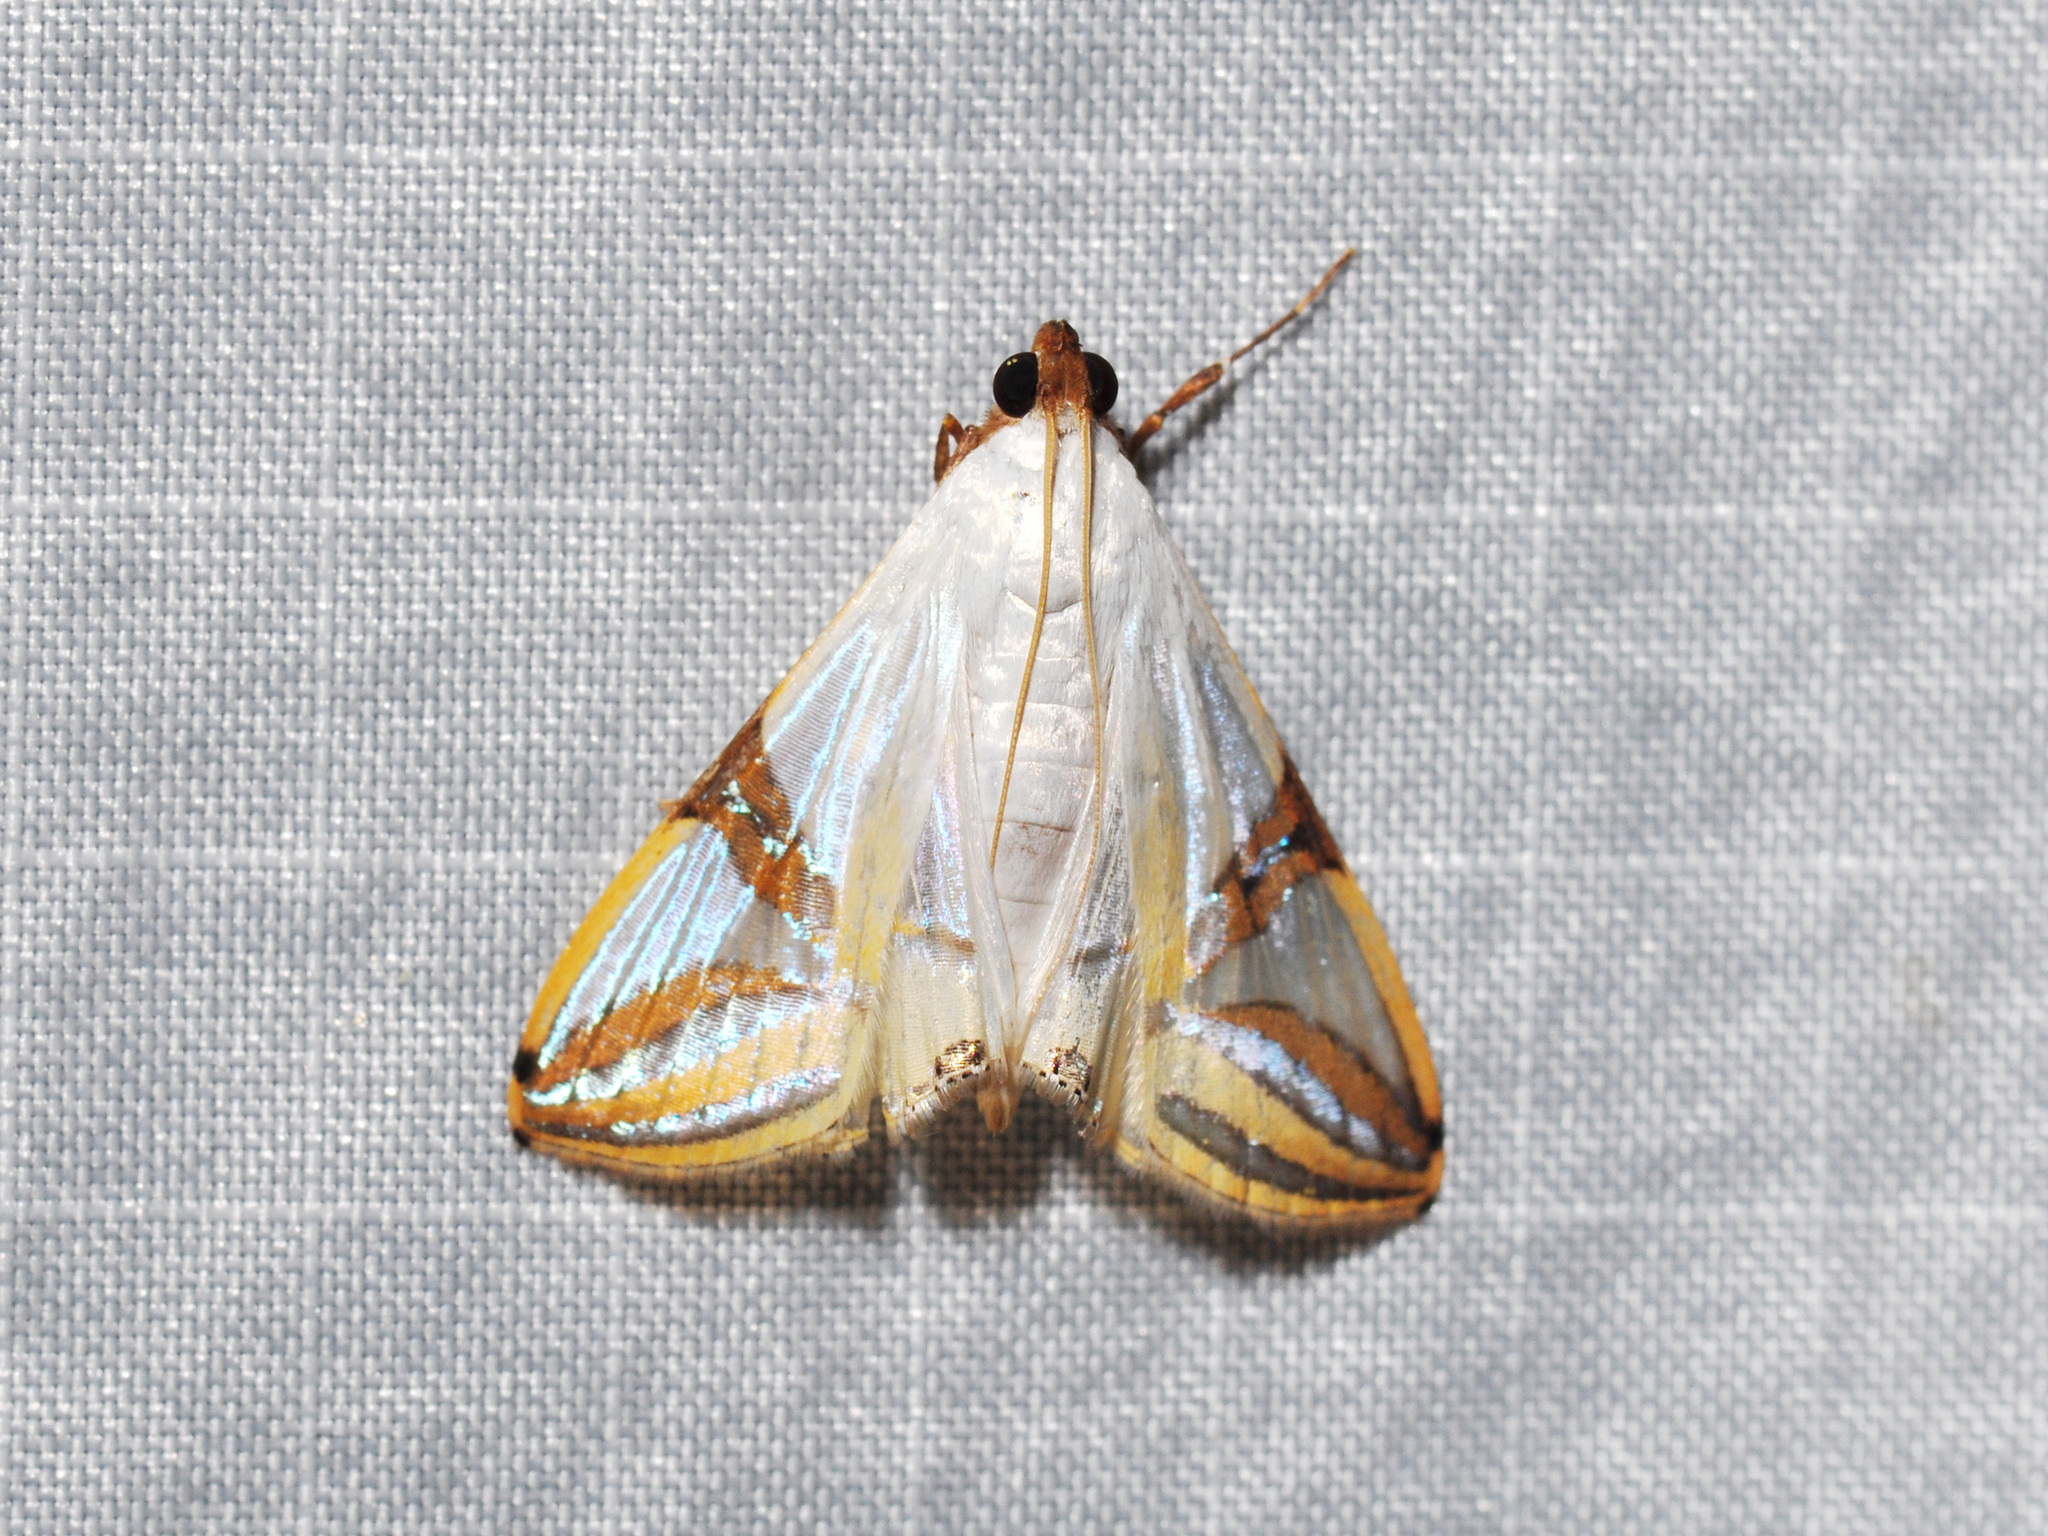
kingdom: Animalia
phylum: Arthropoda
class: Insecta
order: Lepidoptera
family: Crambidae
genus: Talanga
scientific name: Talanga sabacusalis
